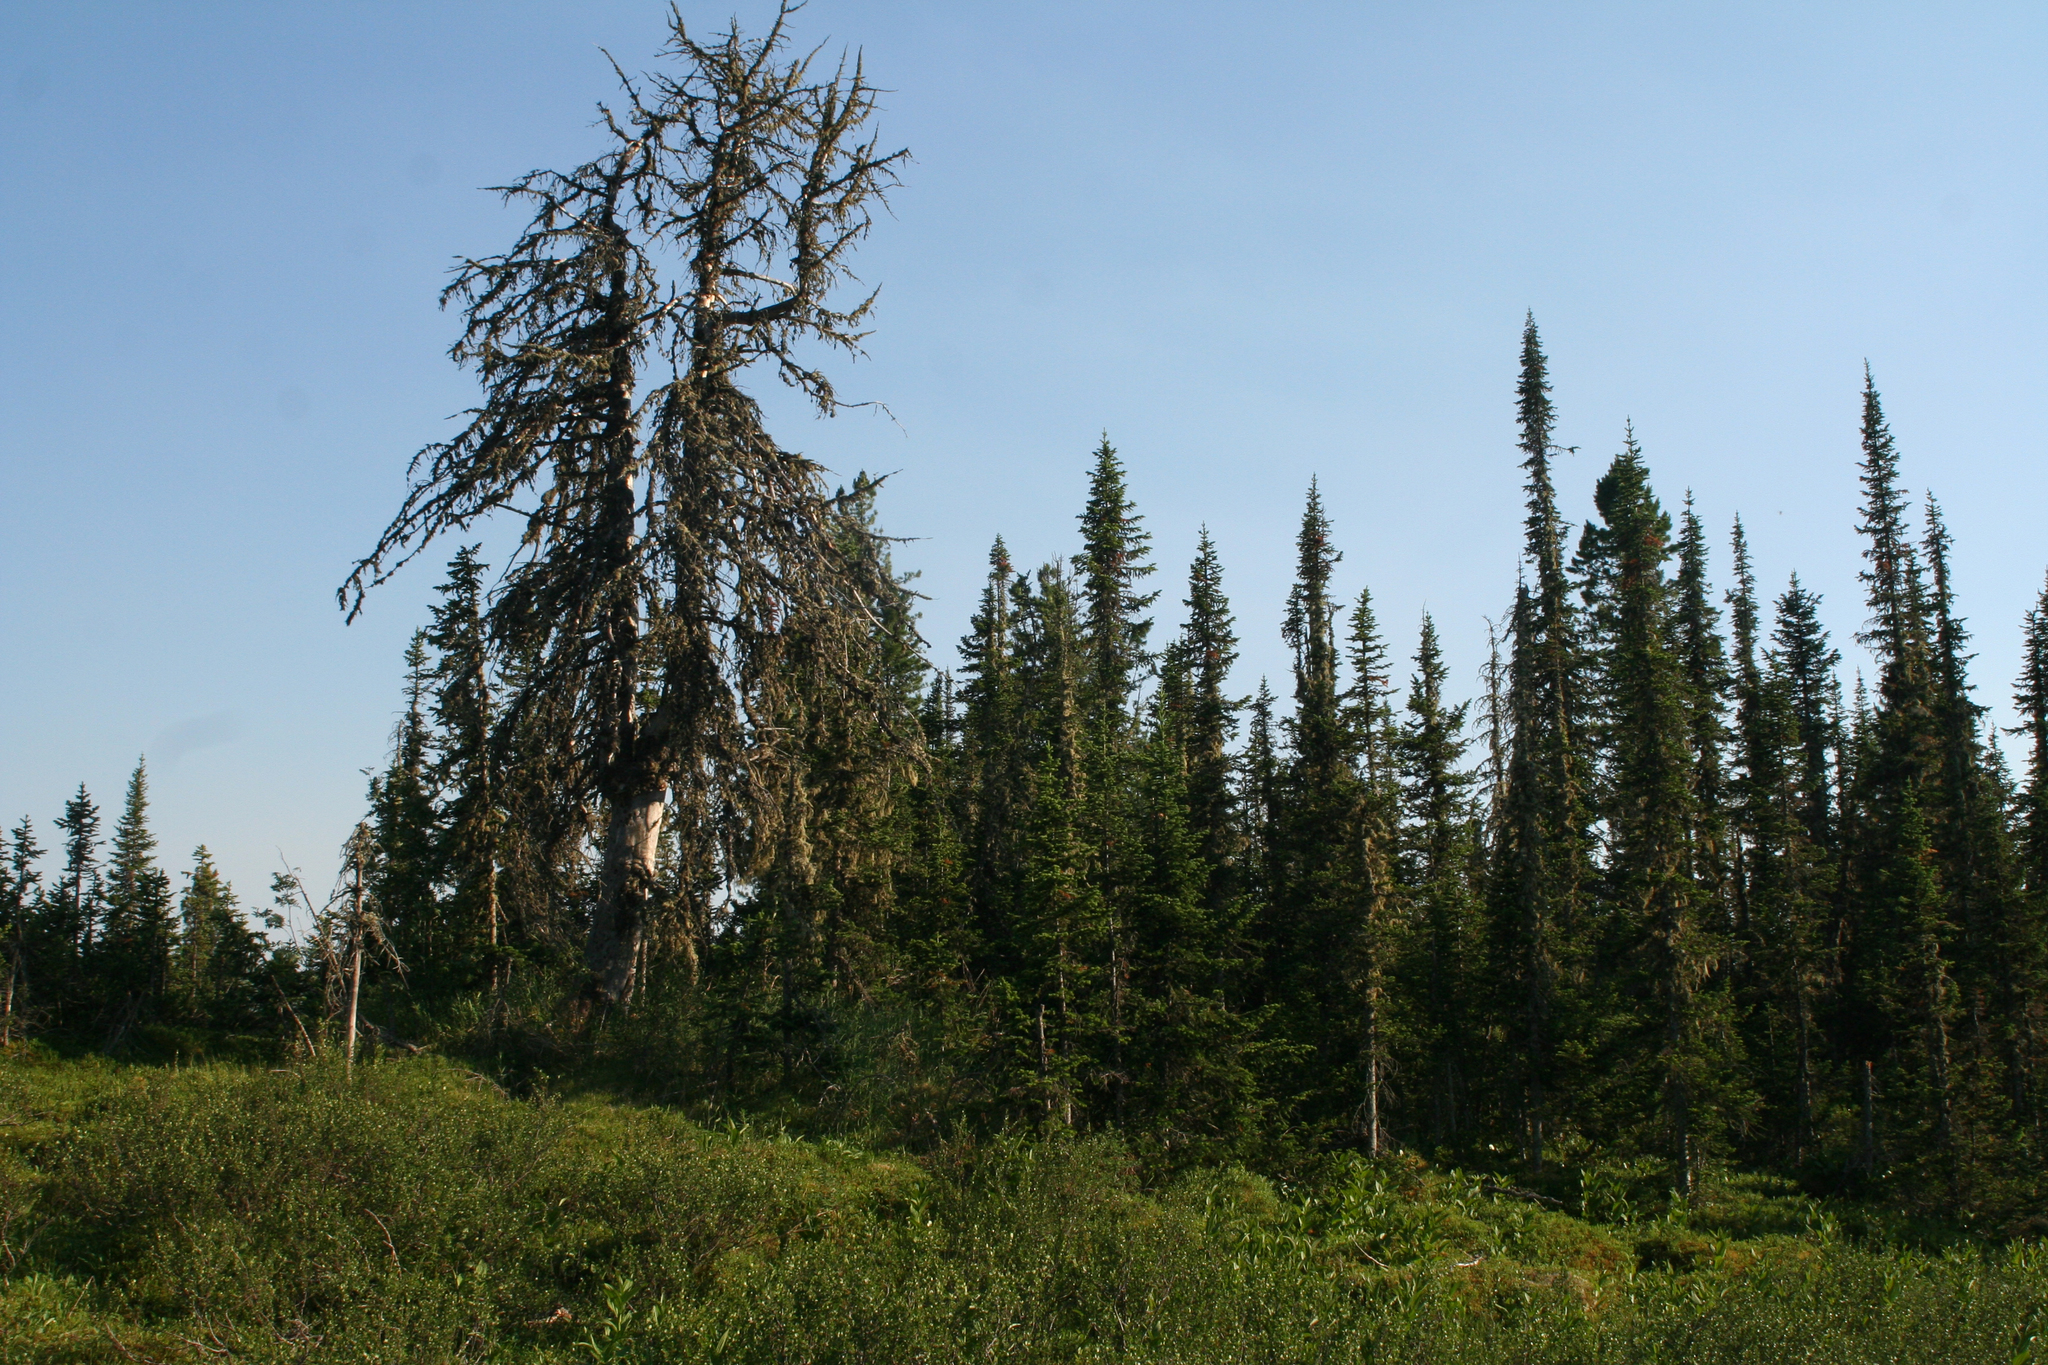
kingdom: Plantae
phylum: Tracheophyta
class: Pinopsida
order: Pinales
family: Pinaceae
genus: Abies
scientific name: Abies sibirica
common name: Siberian fir
